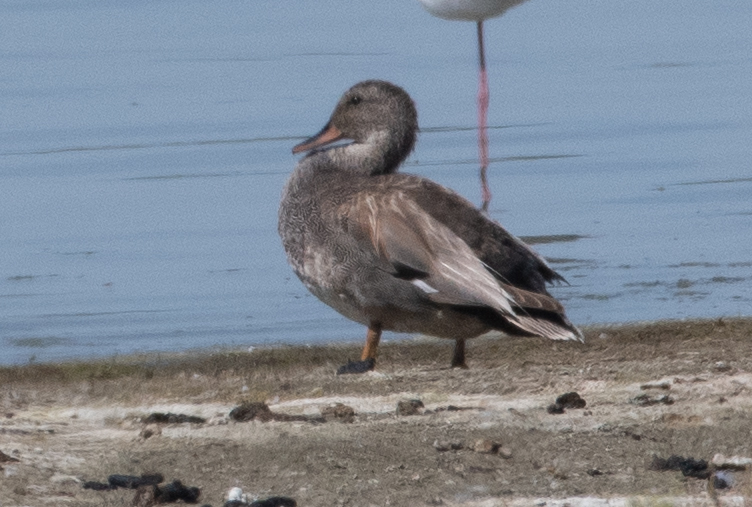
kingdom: Animalia
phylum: Chordata
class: Aves
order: Anseriformes
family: Anatidae
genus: Mareca
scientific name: Mareca strepera
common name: Gadwall
